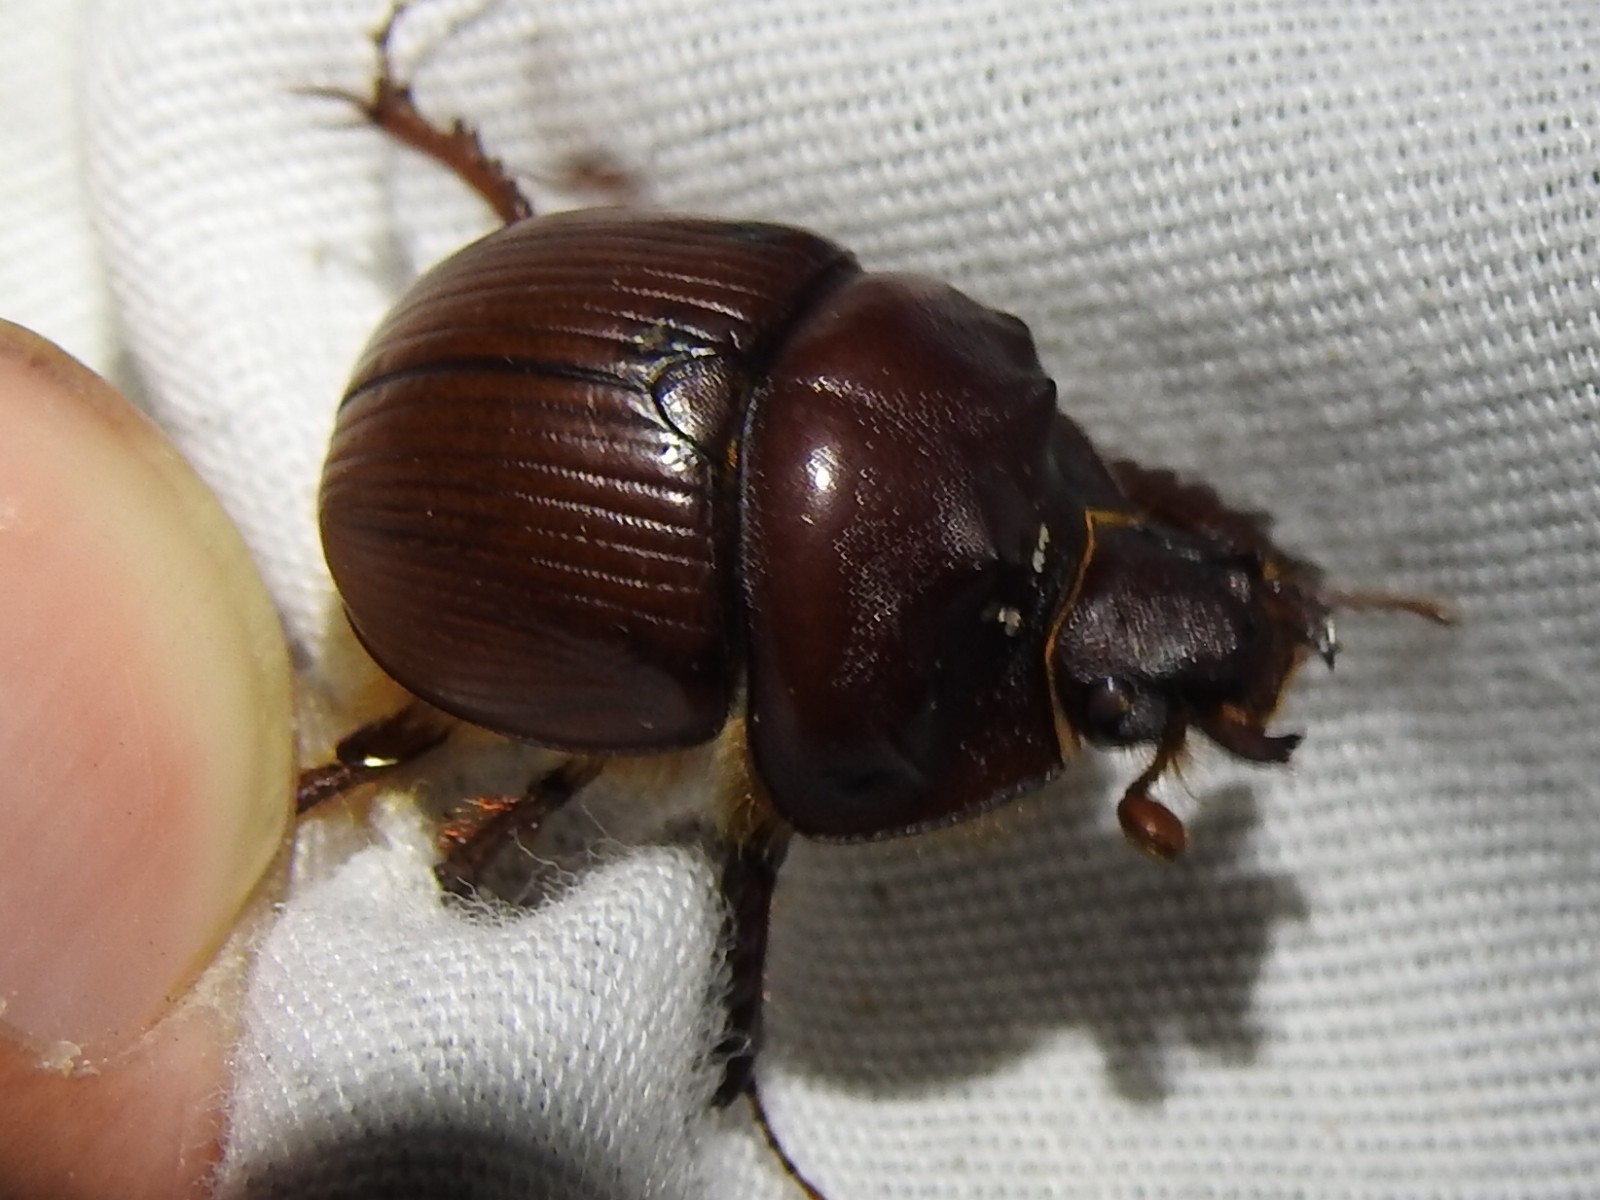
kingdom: Animalia
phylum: Arthropoda
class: Insecta
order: Coleoptera
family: Geotrupidae
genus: Bradycinetulus
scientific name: Bradycinetulus fossatus
